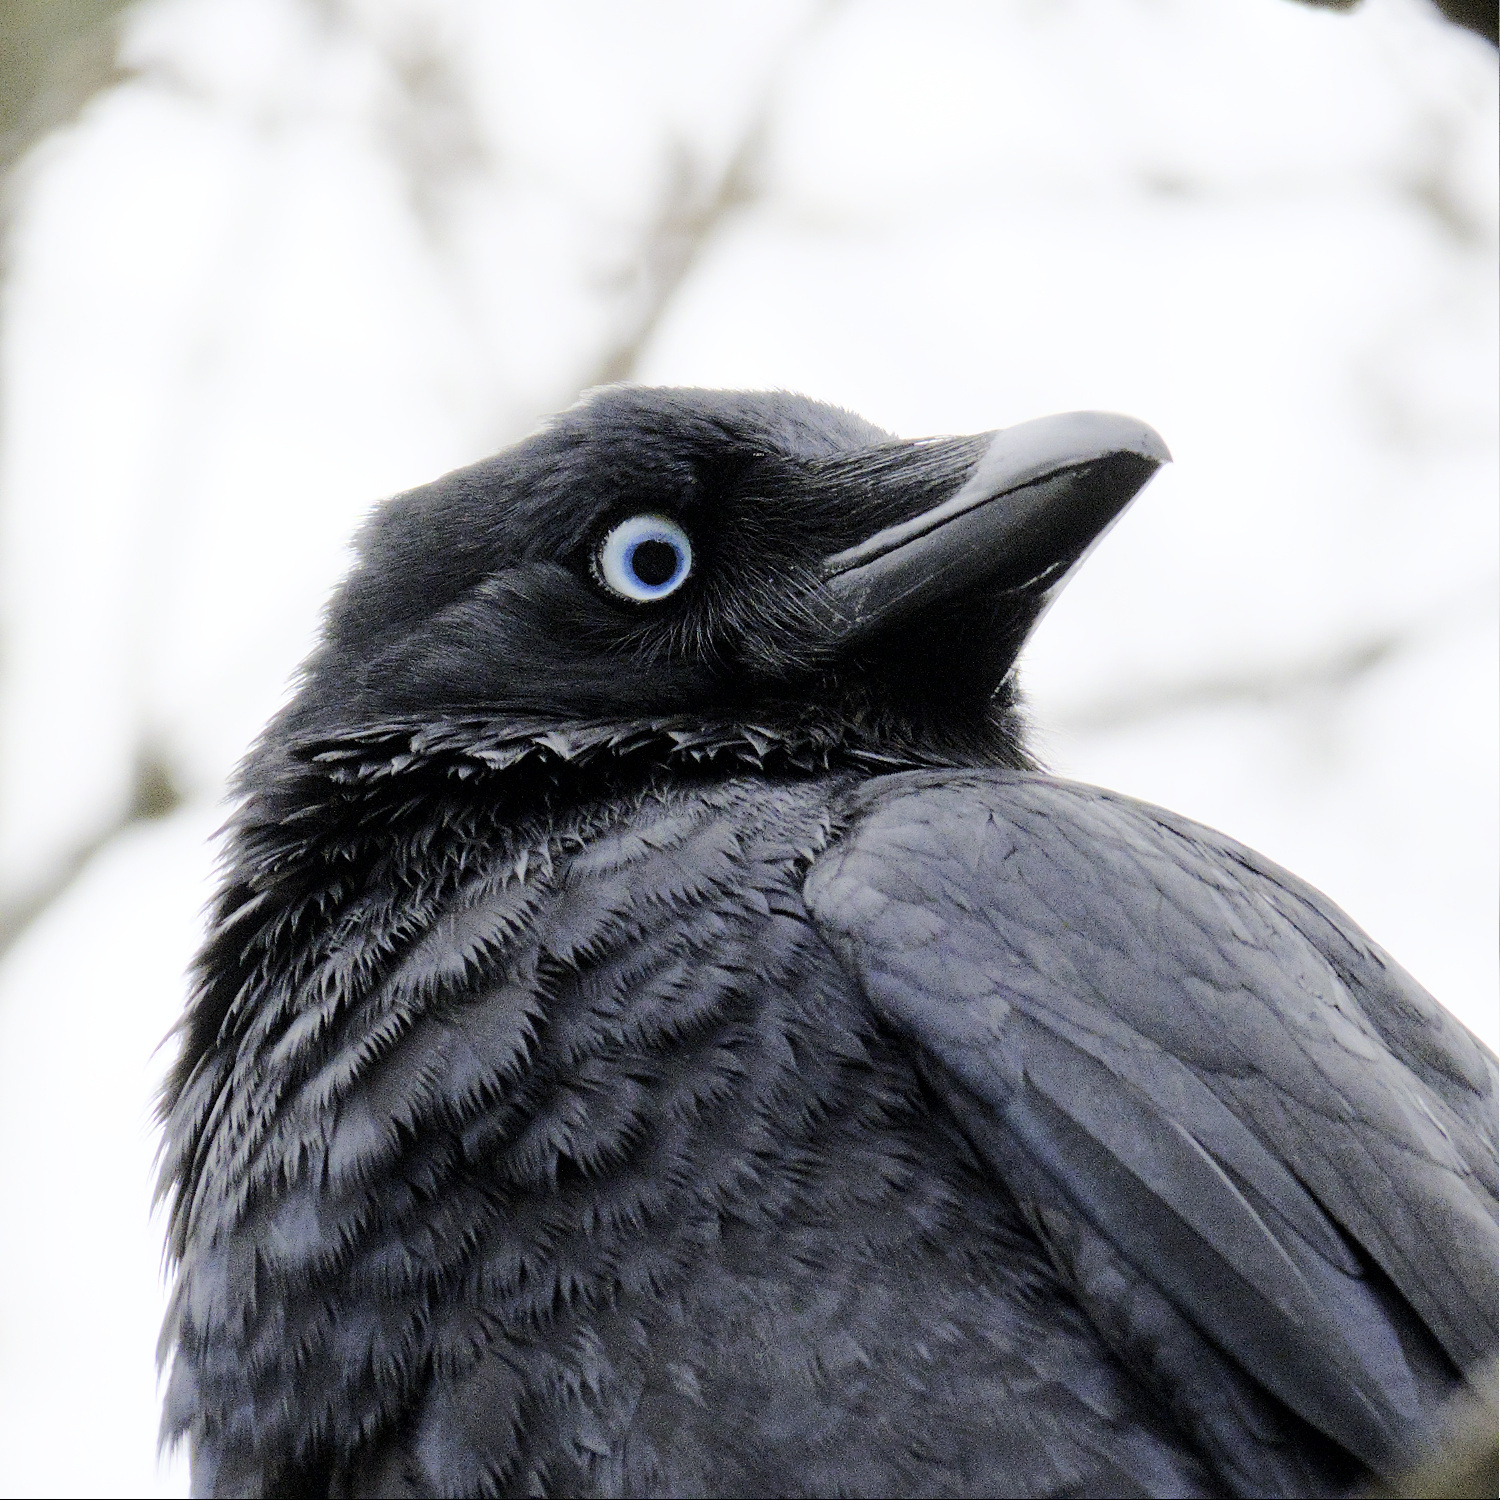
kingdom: Animalia
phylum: Chordata
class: Aves
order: Passeriformes
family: Corvidae
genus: Corvus
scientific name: Corvus mellori
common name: Little raven
